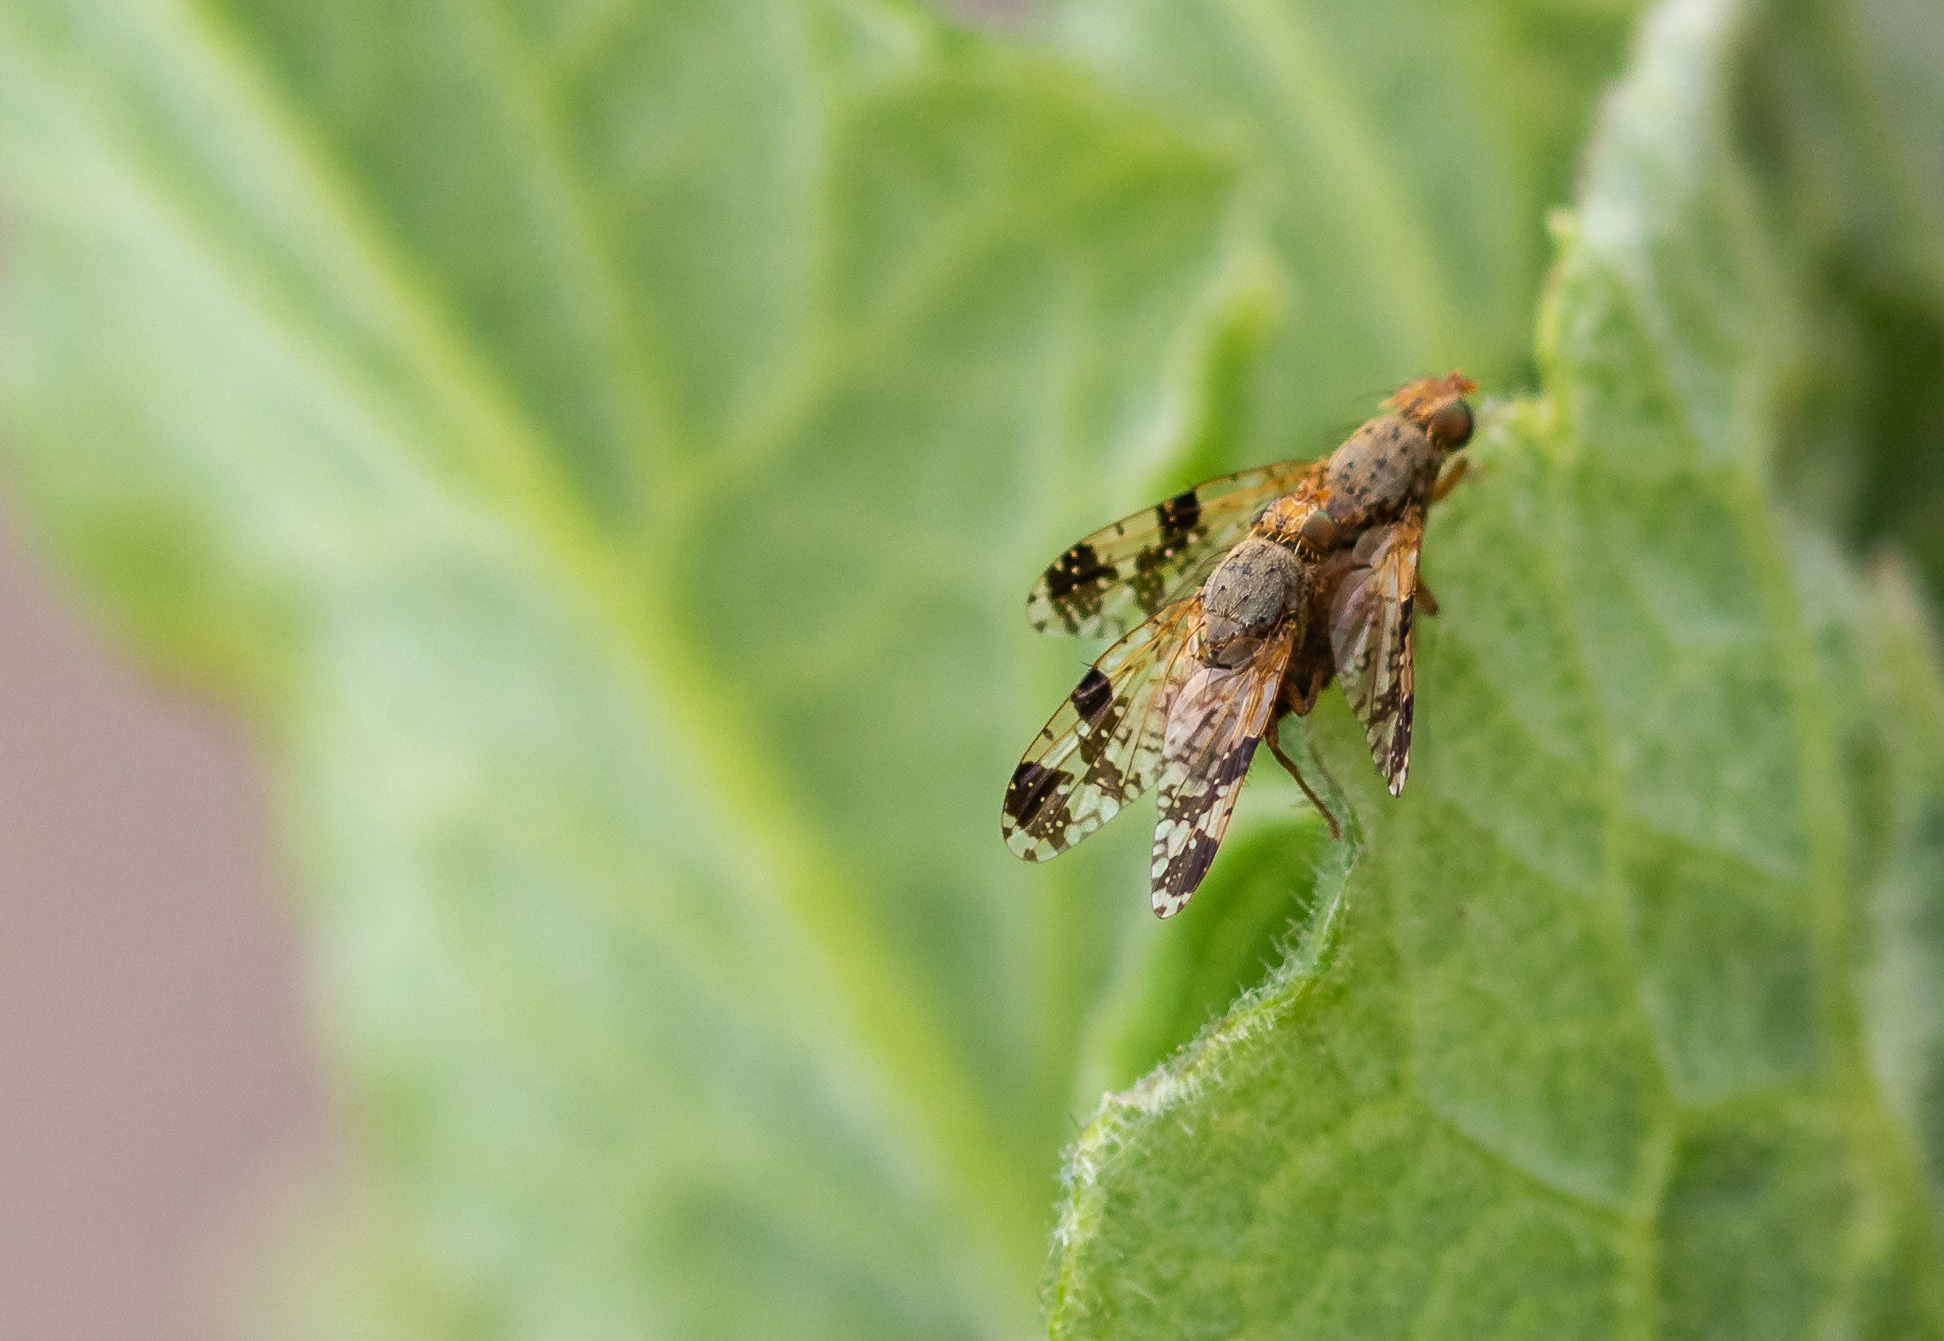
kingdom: Animalia
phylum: Arthropoda
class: Insecta
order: Diptera
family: Tephritidae
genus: Tephritis
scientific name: Tephritis bardanae
